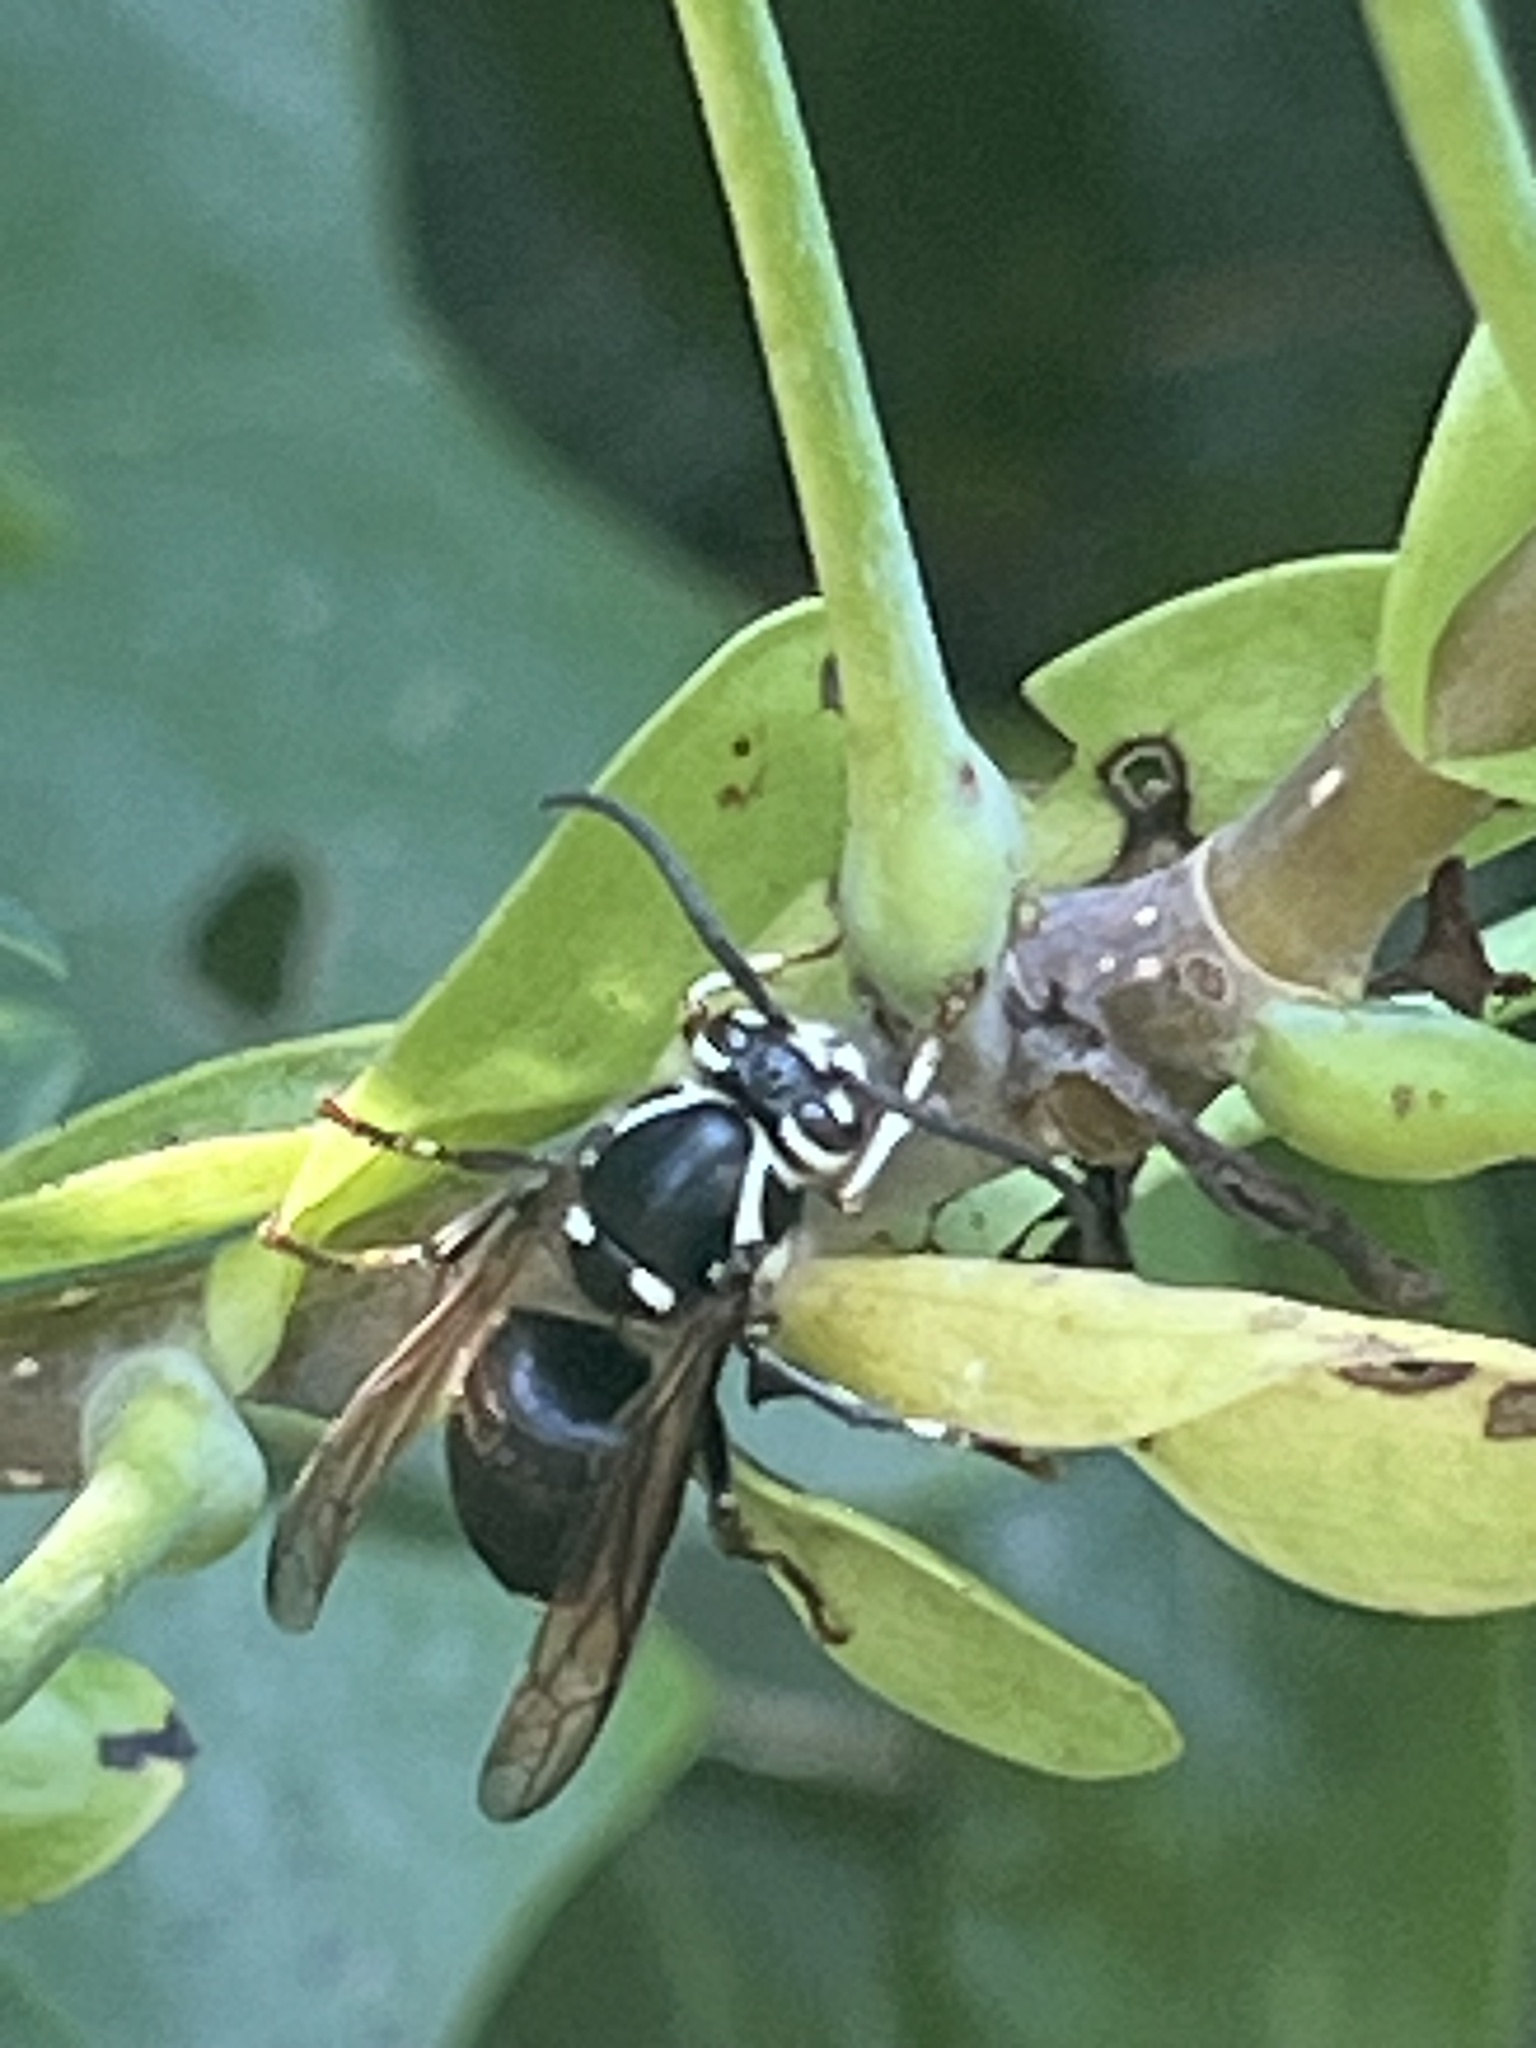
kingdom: Animalia
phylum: Arthropoda
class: Insecta
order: Hymenoptera
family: Vespidae
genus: Dolichovespula
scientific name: Dolichovespula maculata
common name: Bald-faced hornet
